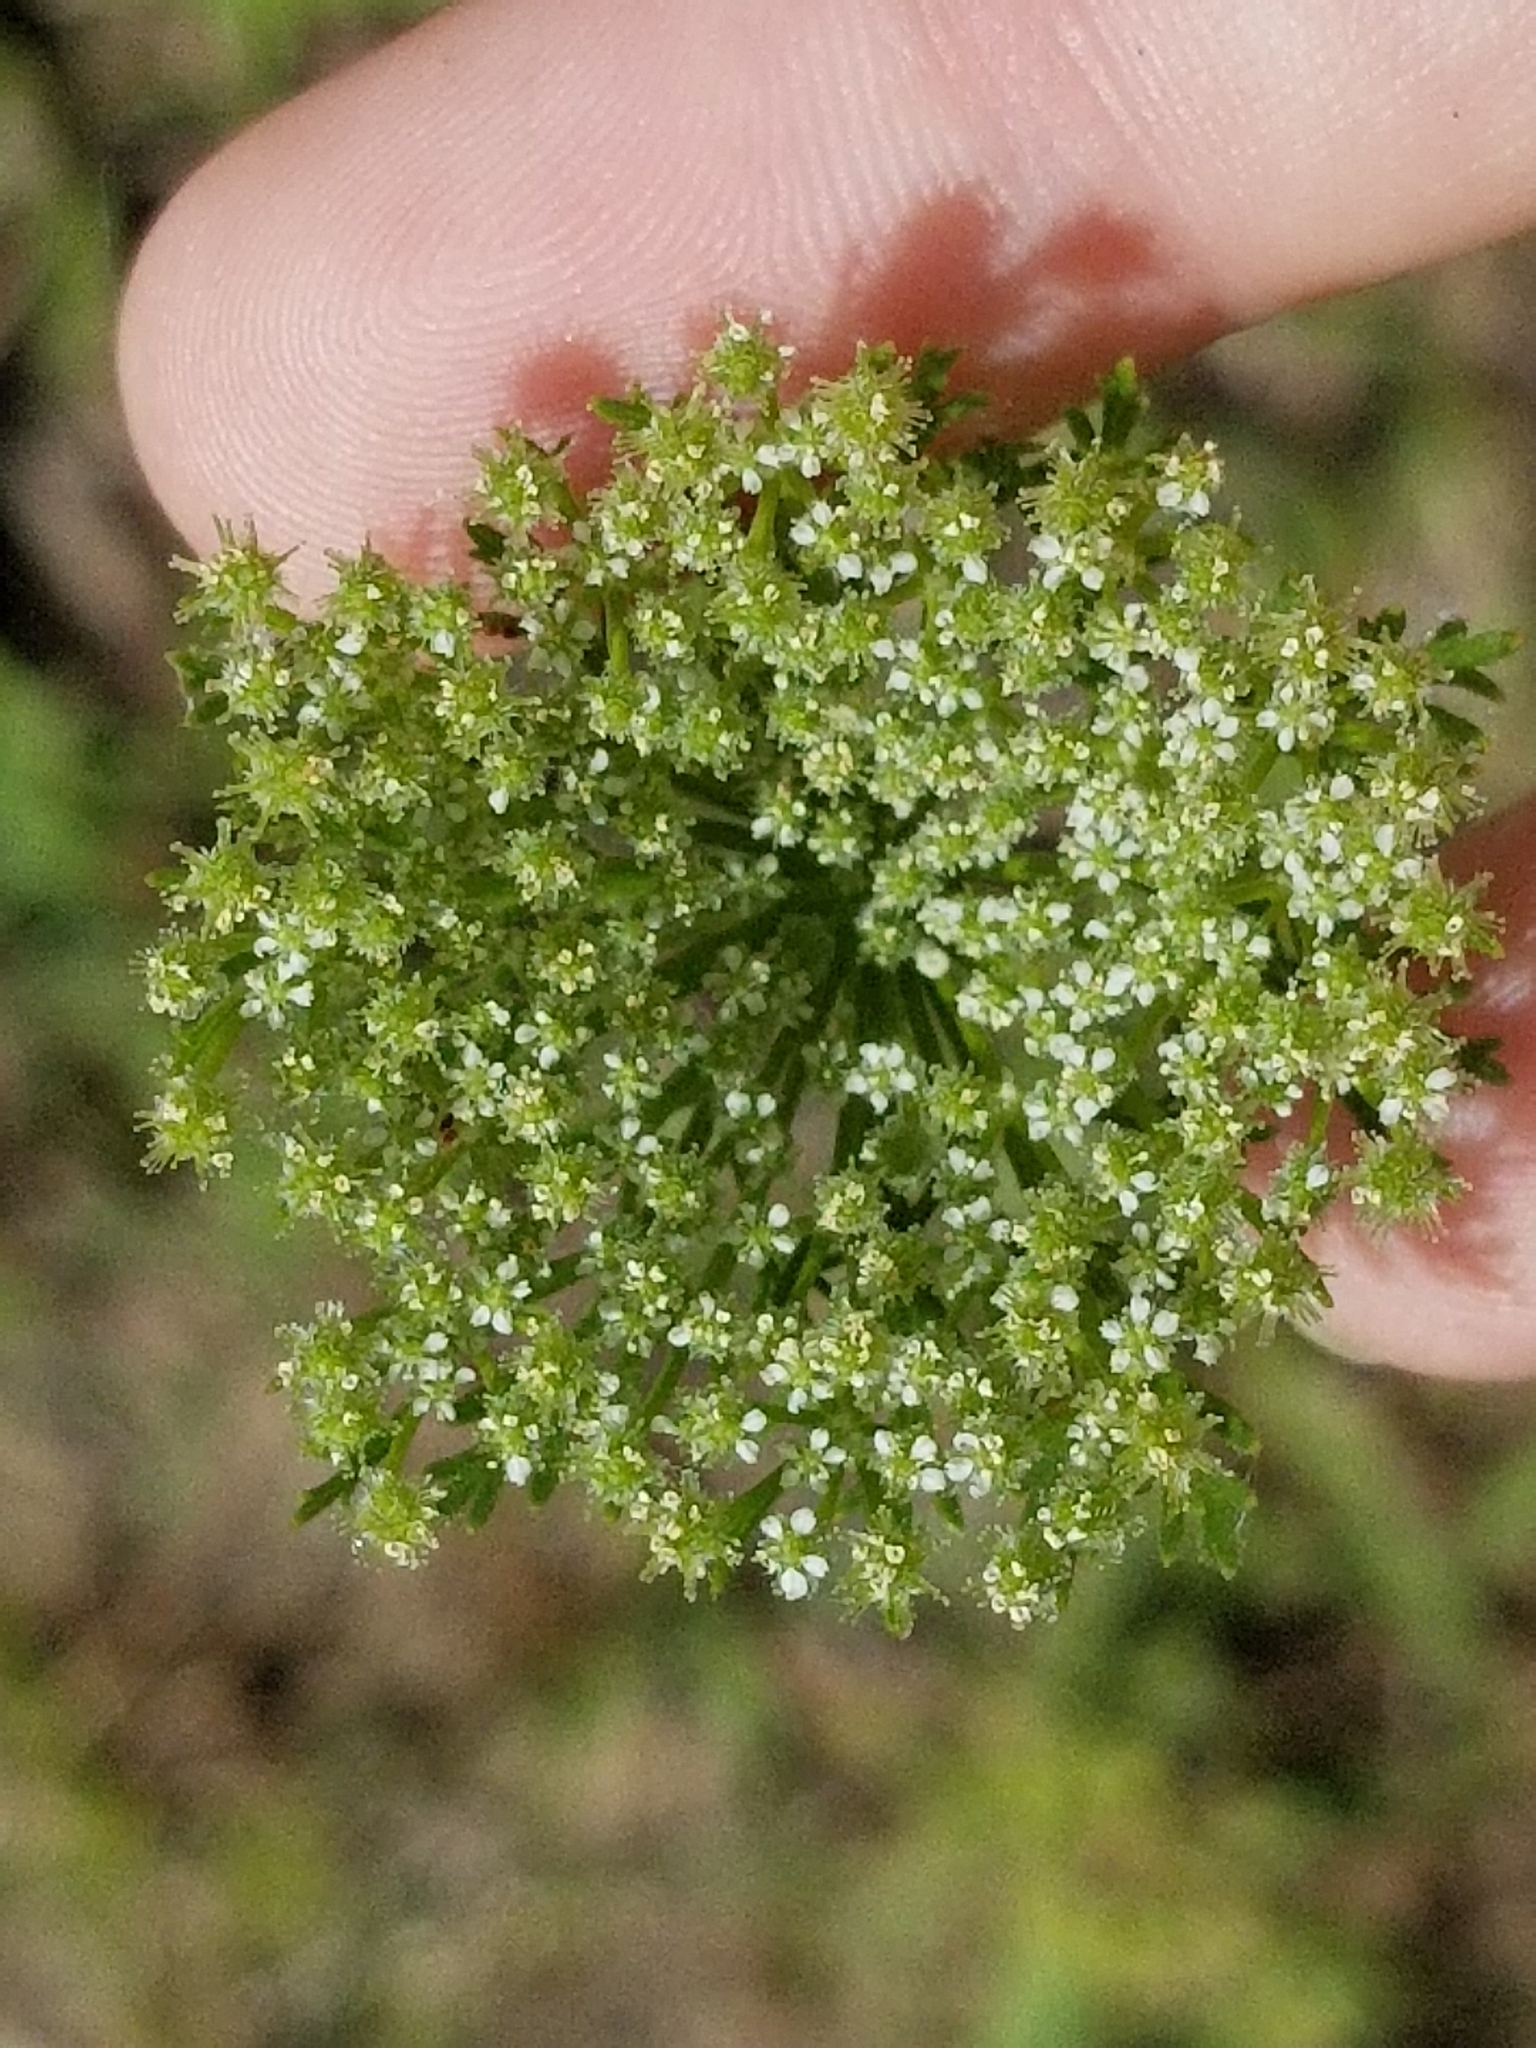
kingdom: Plantae
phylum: Tracheophyta
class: Magnoliopsida
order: Apiales
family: Apiaceae
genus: Daucus
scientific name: Daucus pusillus
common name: Southwest wild carrot
